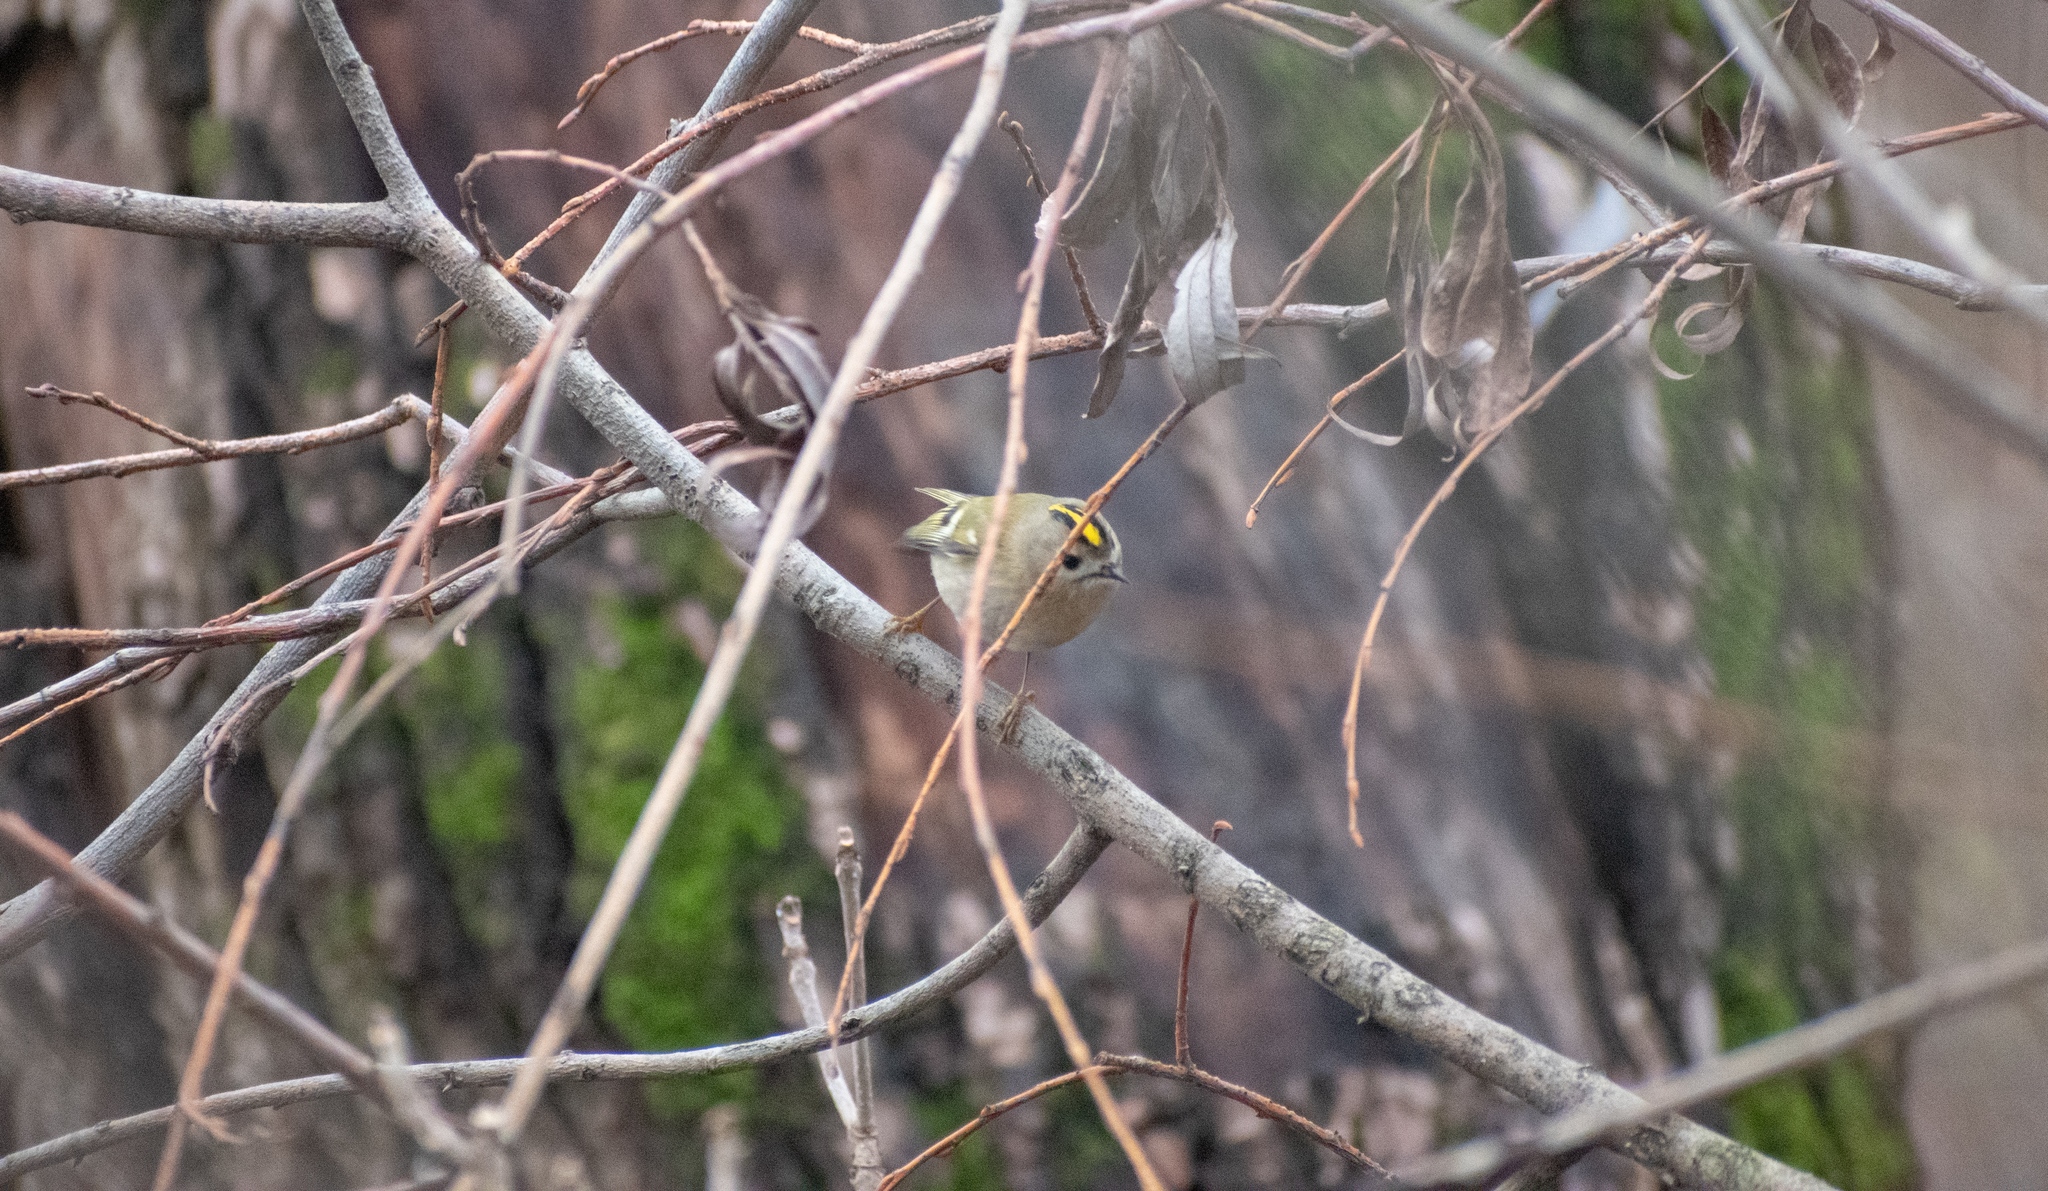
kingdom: Animalia
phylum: Chordata
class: Aves
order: Passeriformes
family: Regulidae
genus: Regulus
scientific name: Regulus regulus
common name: Goldcrest
